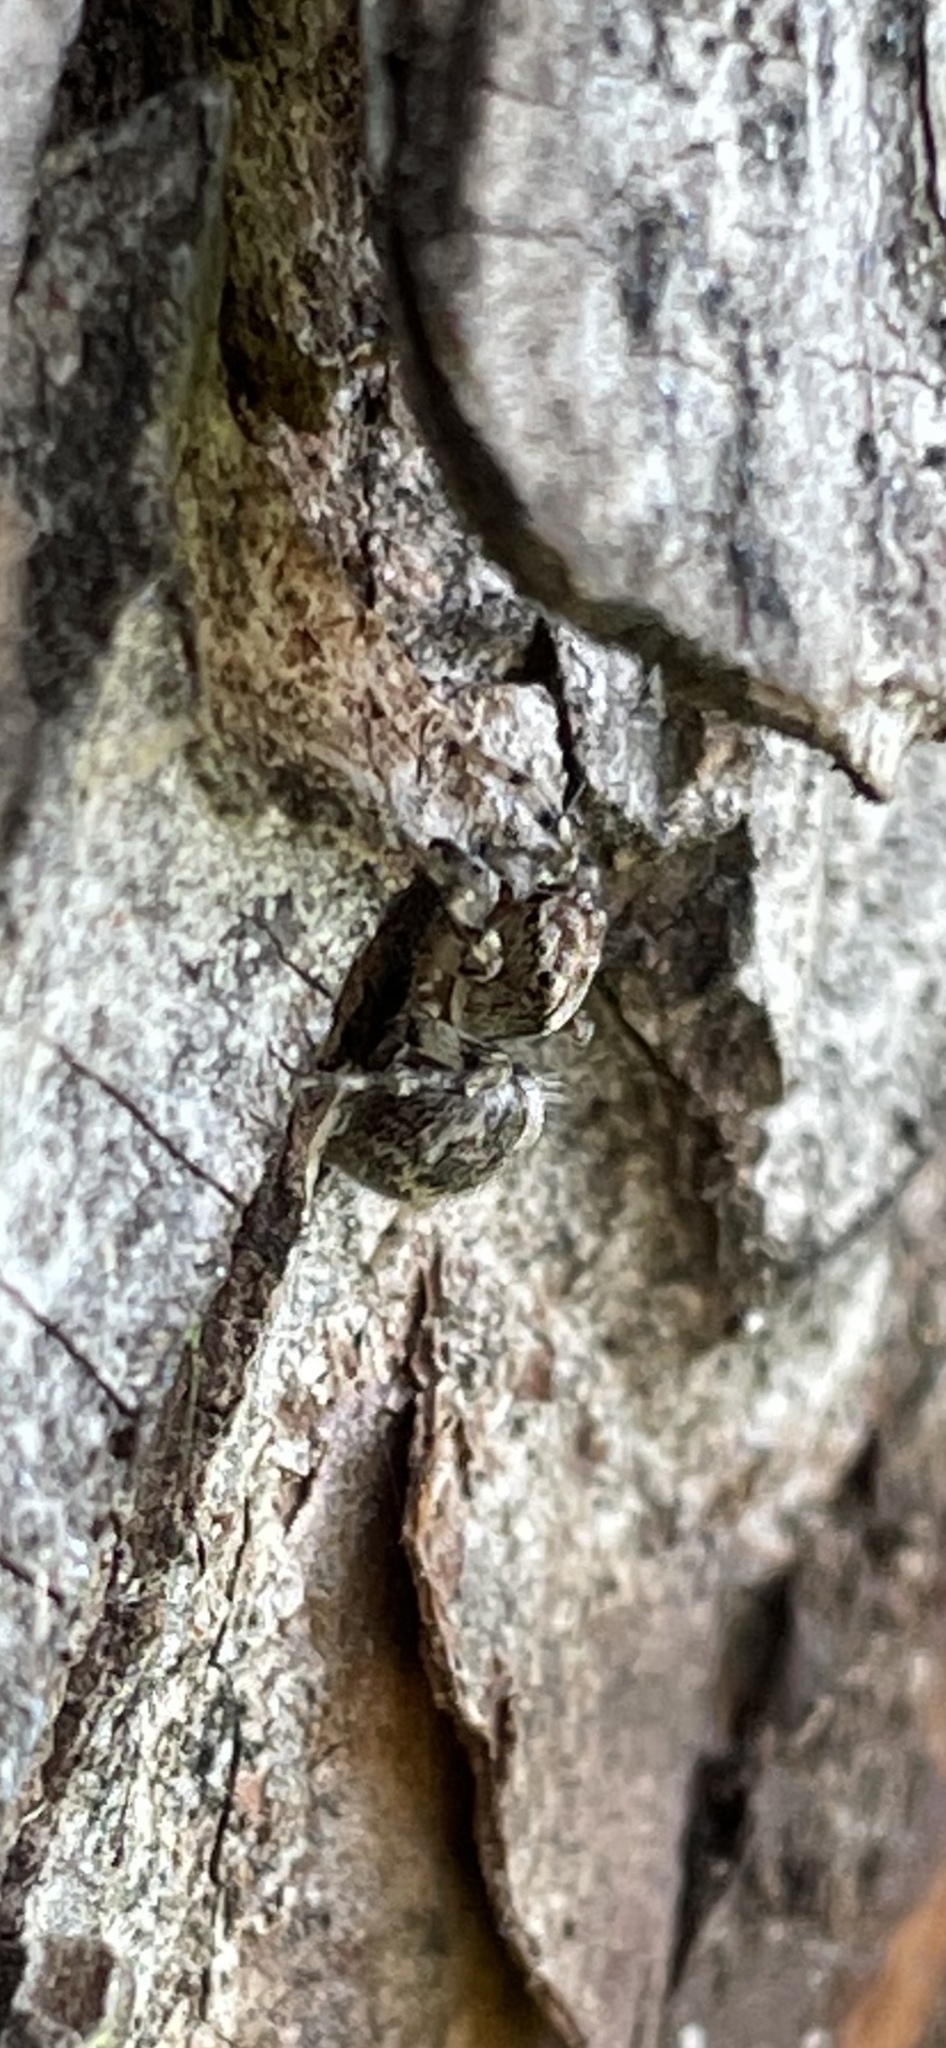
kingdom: Animalia
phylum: Arthropoda
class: Arachnida
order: Araneae
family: Salticidae
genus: Naphrys
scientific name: Naphrys pulex
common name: Flea jumping spider
